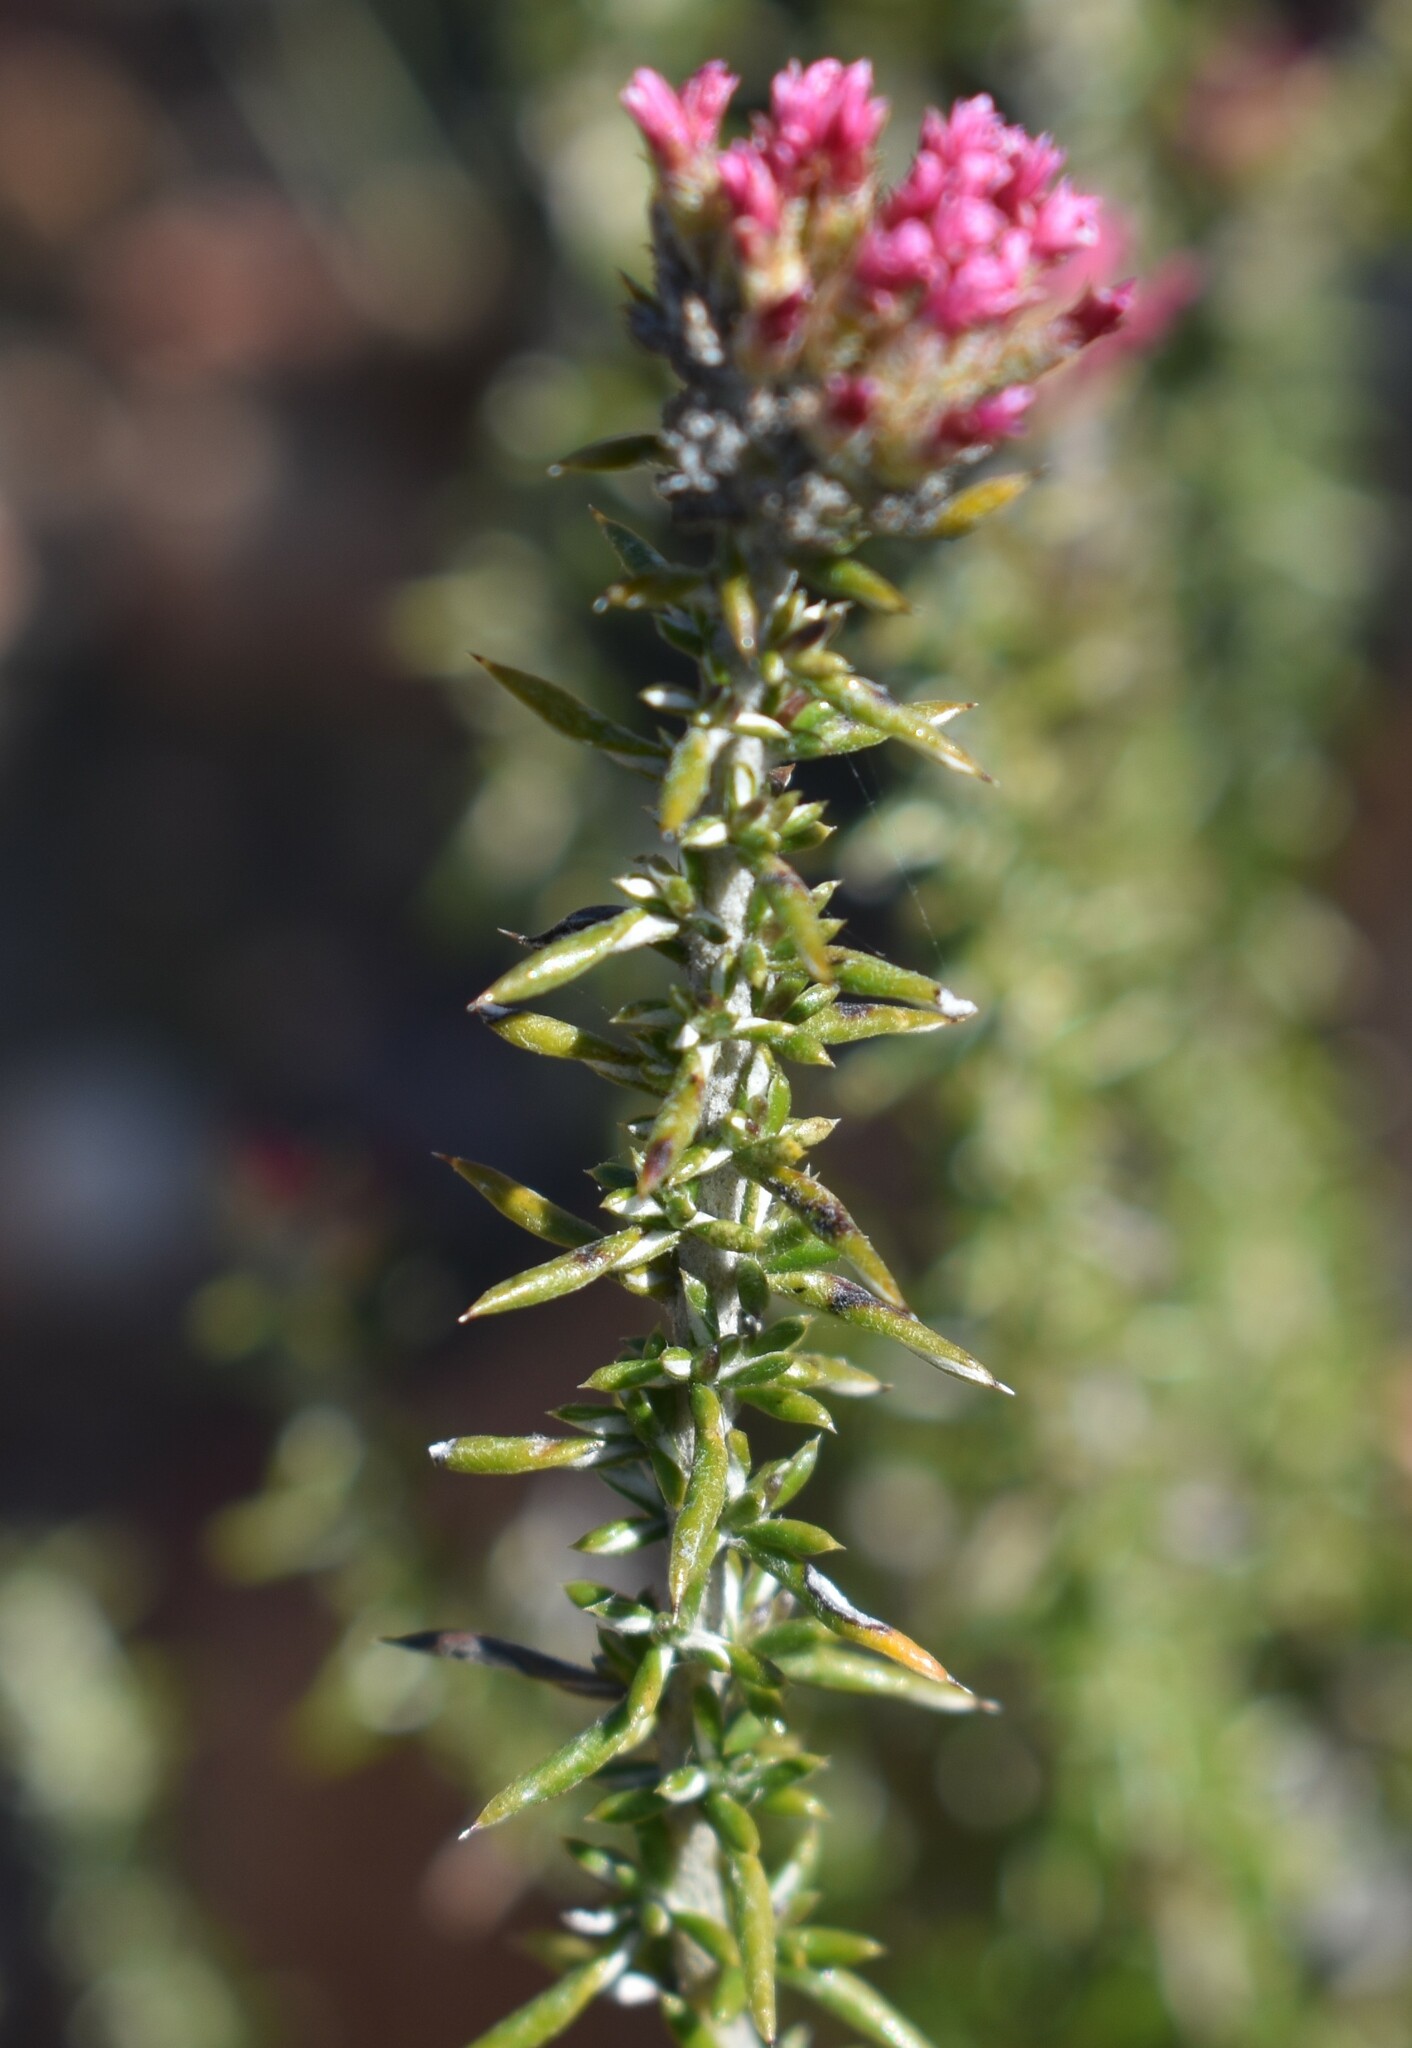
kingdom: Plantae
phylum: Tracheophyta
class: Magnoliopsida
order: Asterales
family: Asteraceae
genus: Metalasia
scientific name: Metalasia massonii
